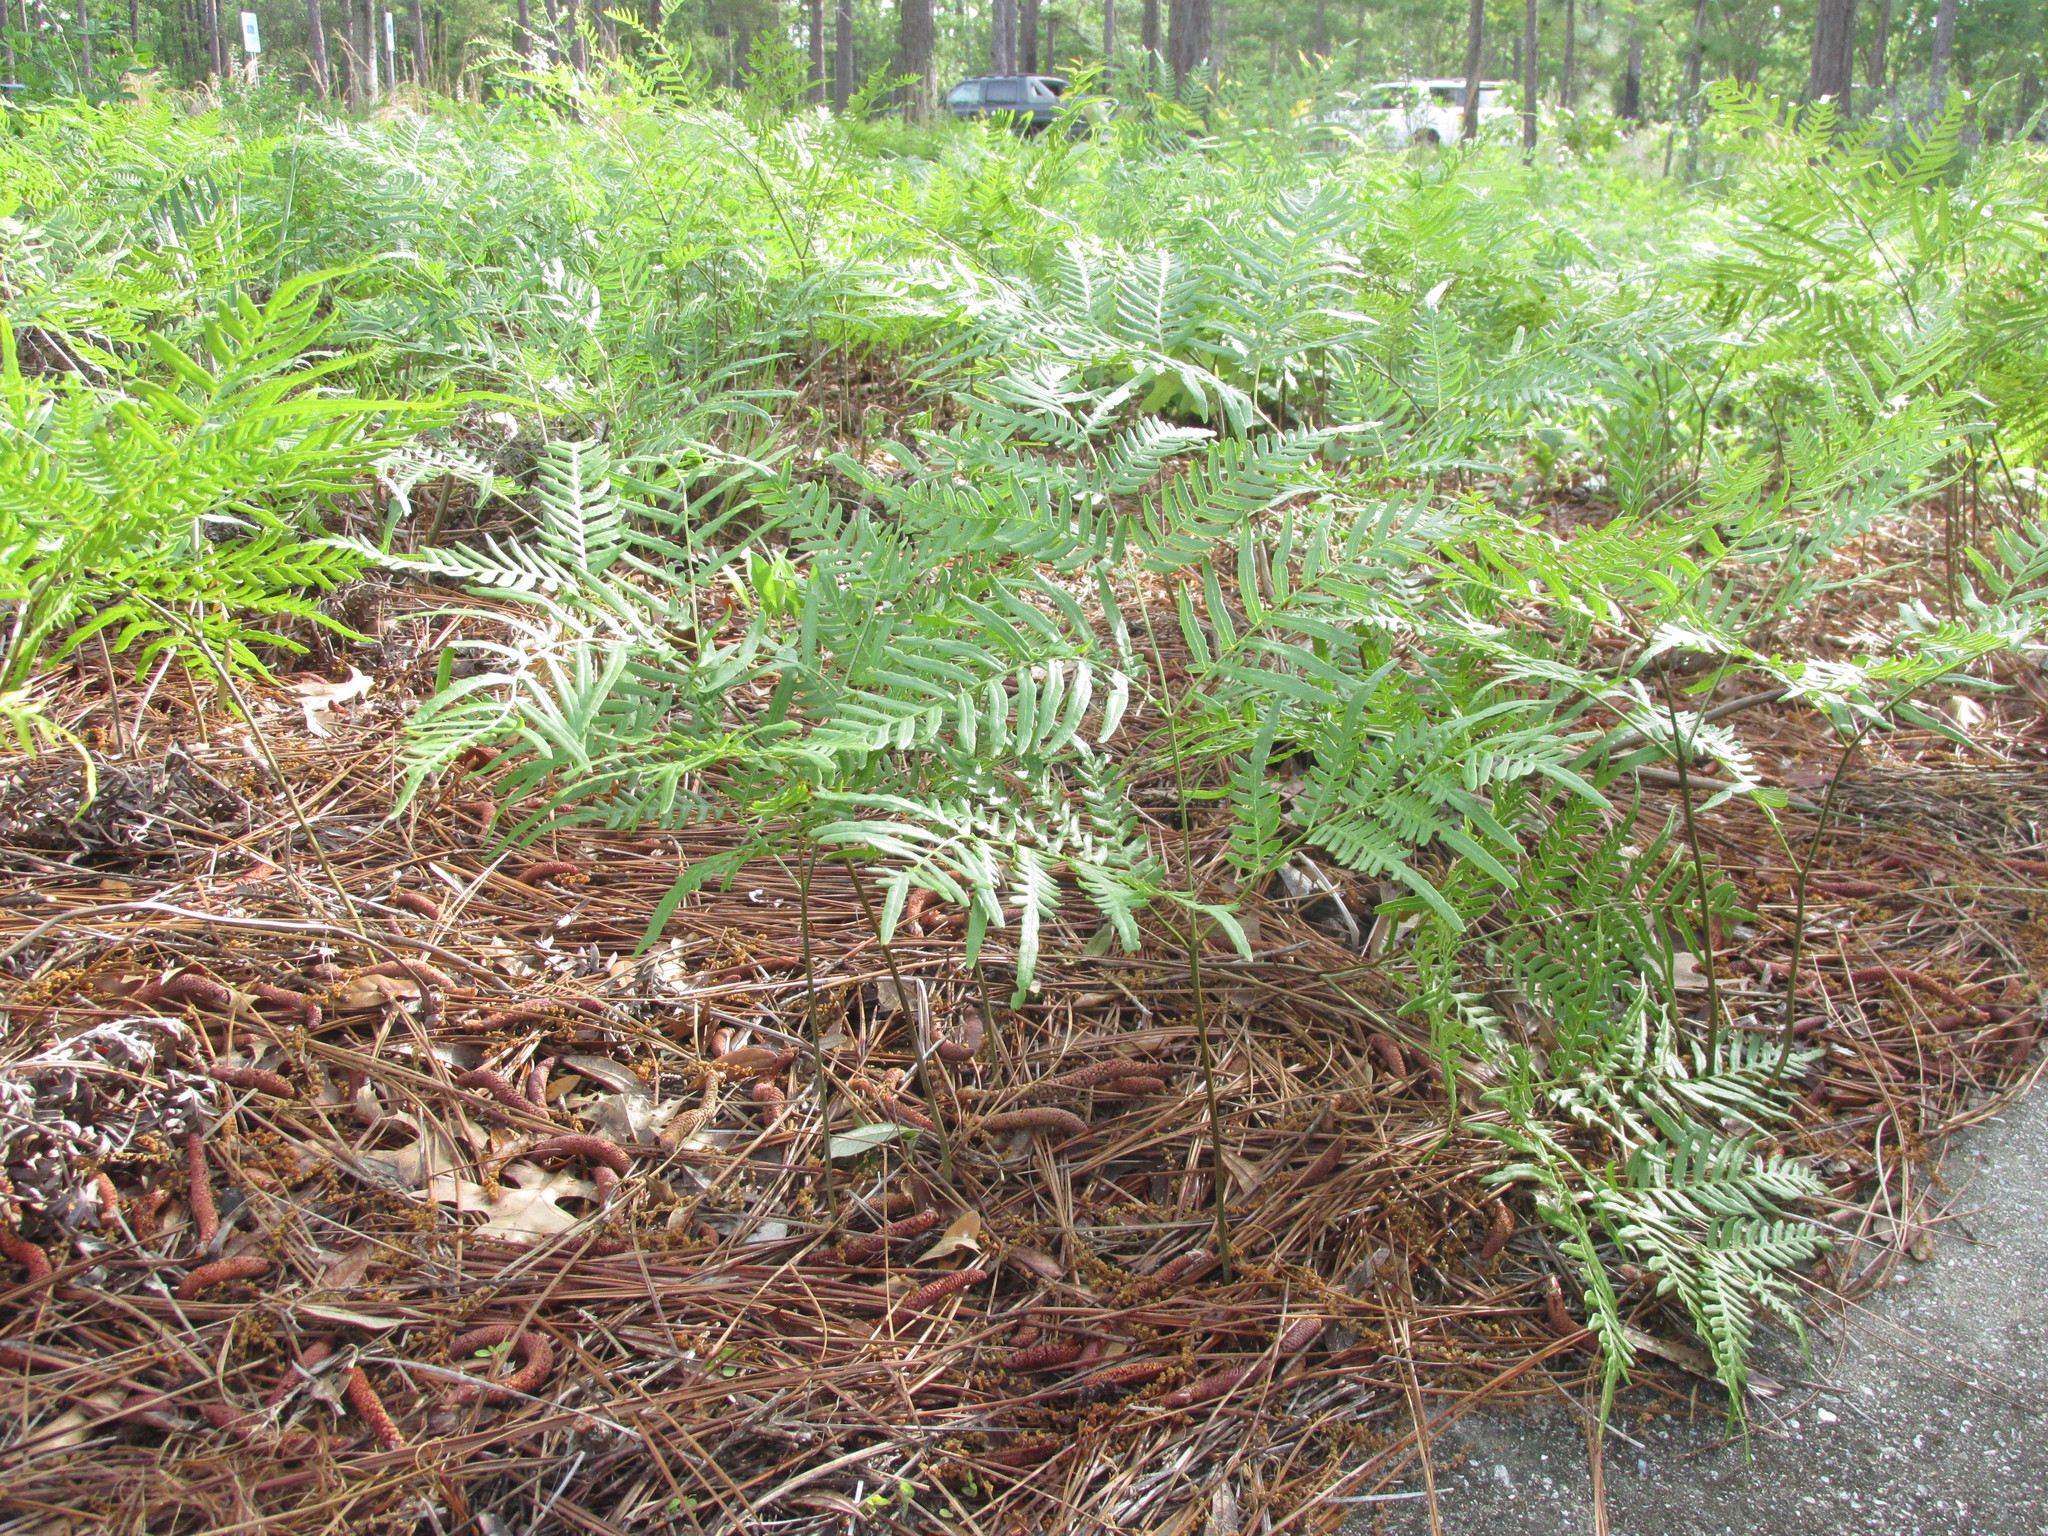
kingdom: Plantae
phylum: Tracheophyta
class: Polypodiopsida
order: Polypodiales
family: Dennstaedtiaceae
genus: Pteridium
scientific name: Pteridium aquilinum
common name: Bracken
